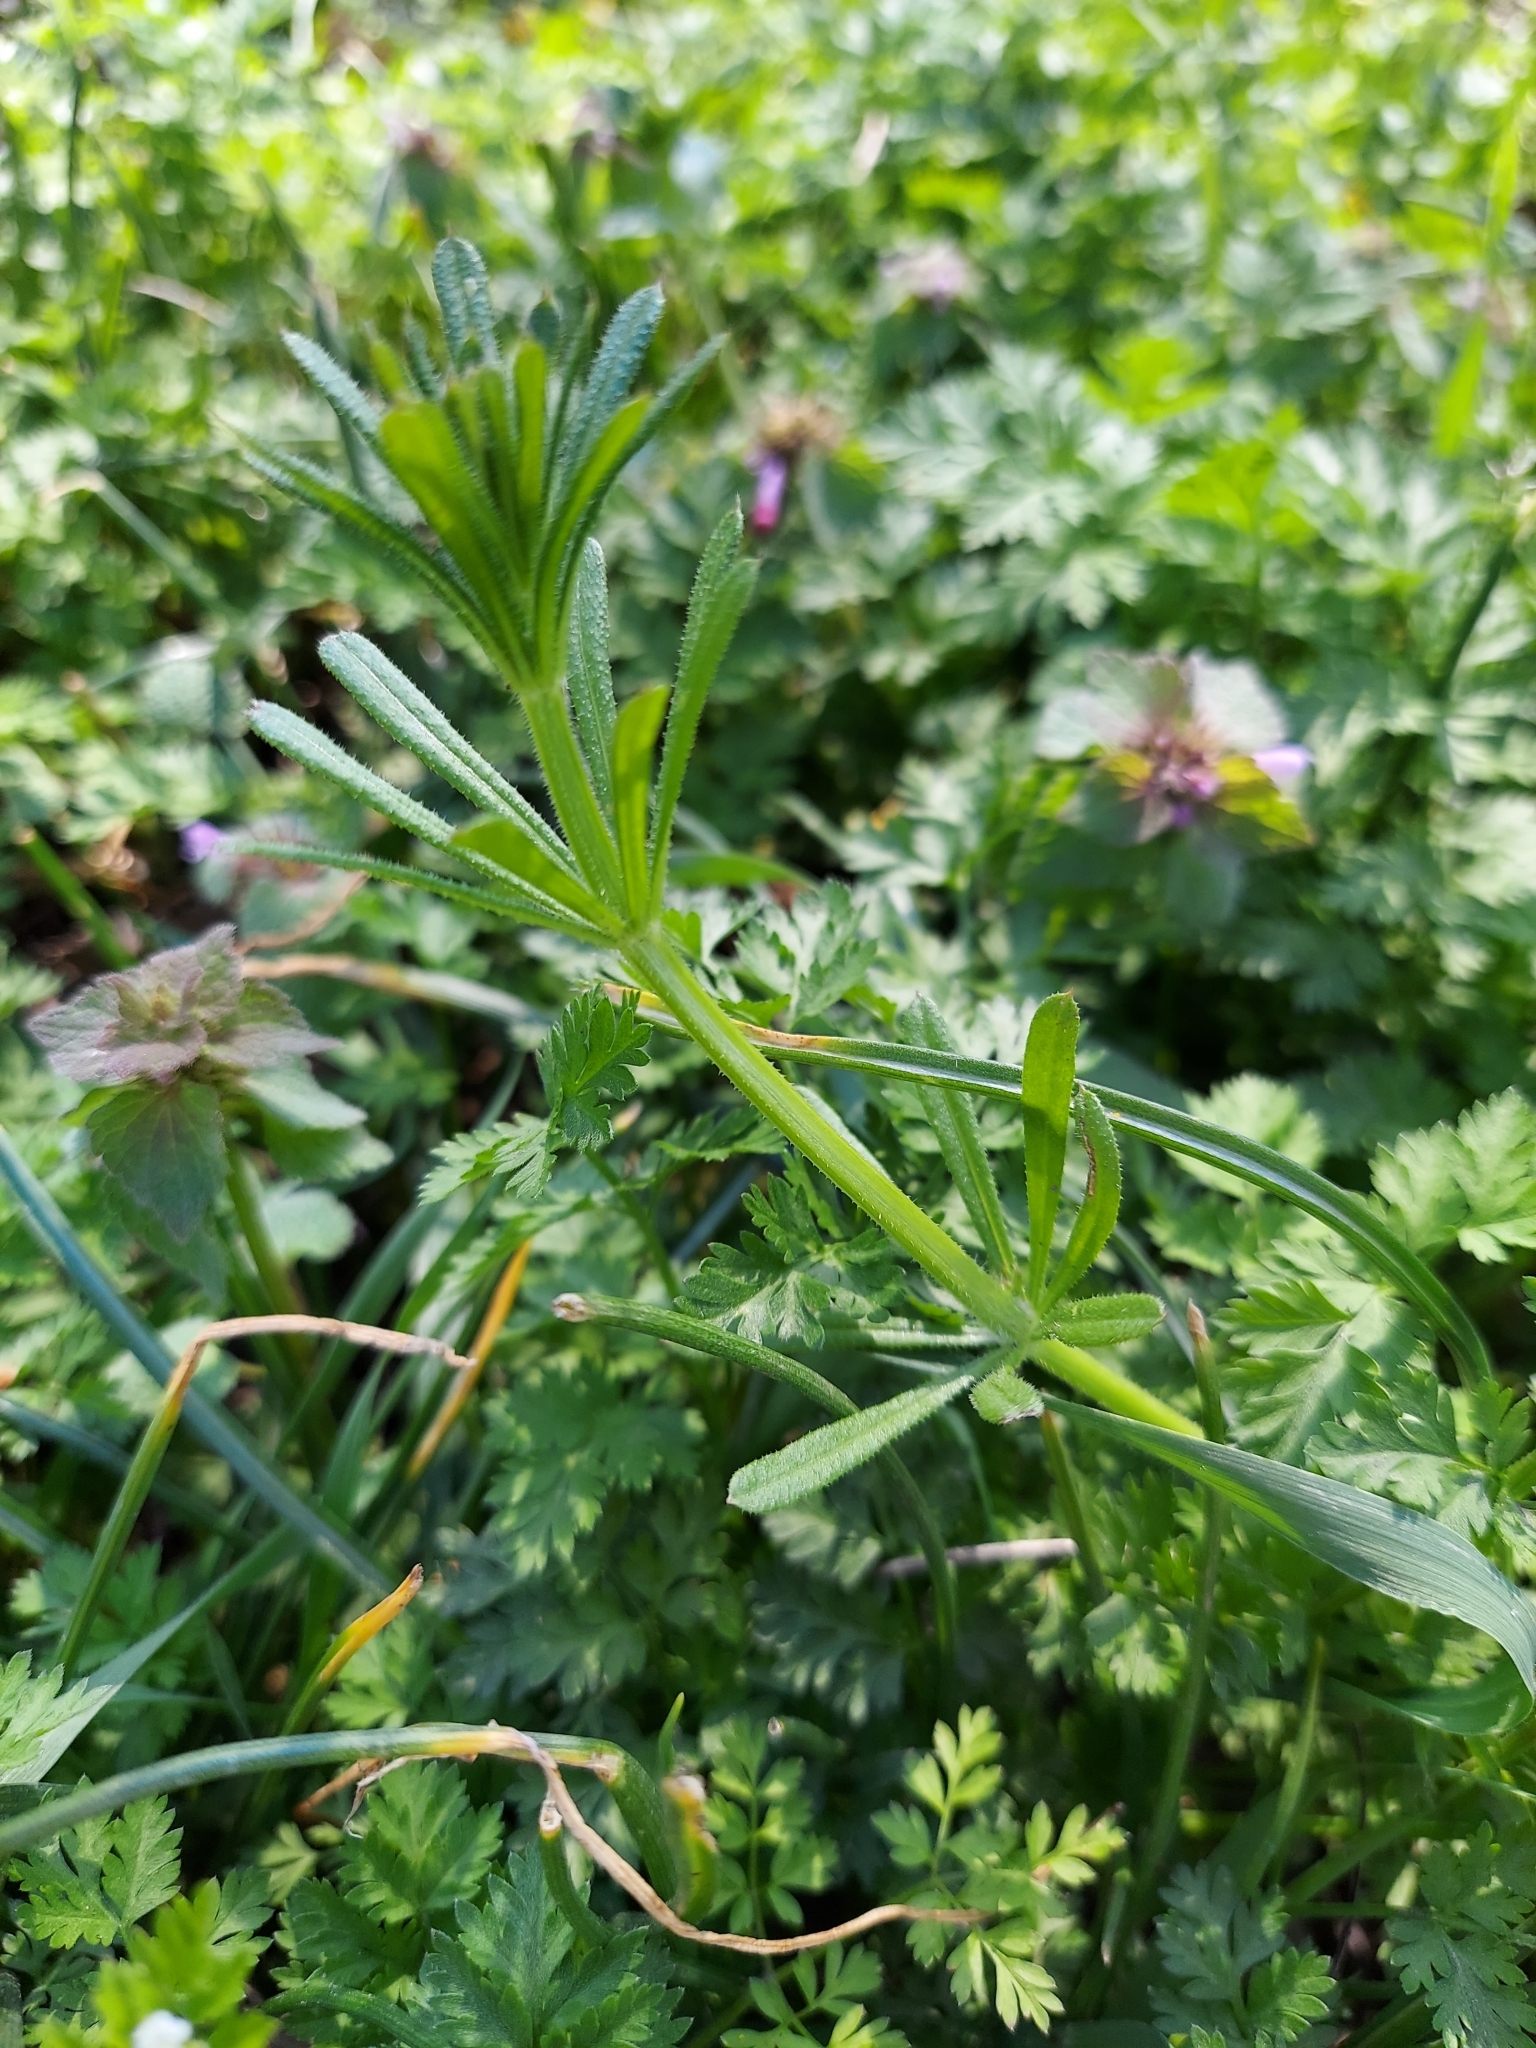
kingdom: Plantae
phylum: Tracheophyta
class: Magnoliopsida
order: Gentianales
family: Rubiaceae
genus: Galium
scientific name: Galium aparine
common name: Cleavers
